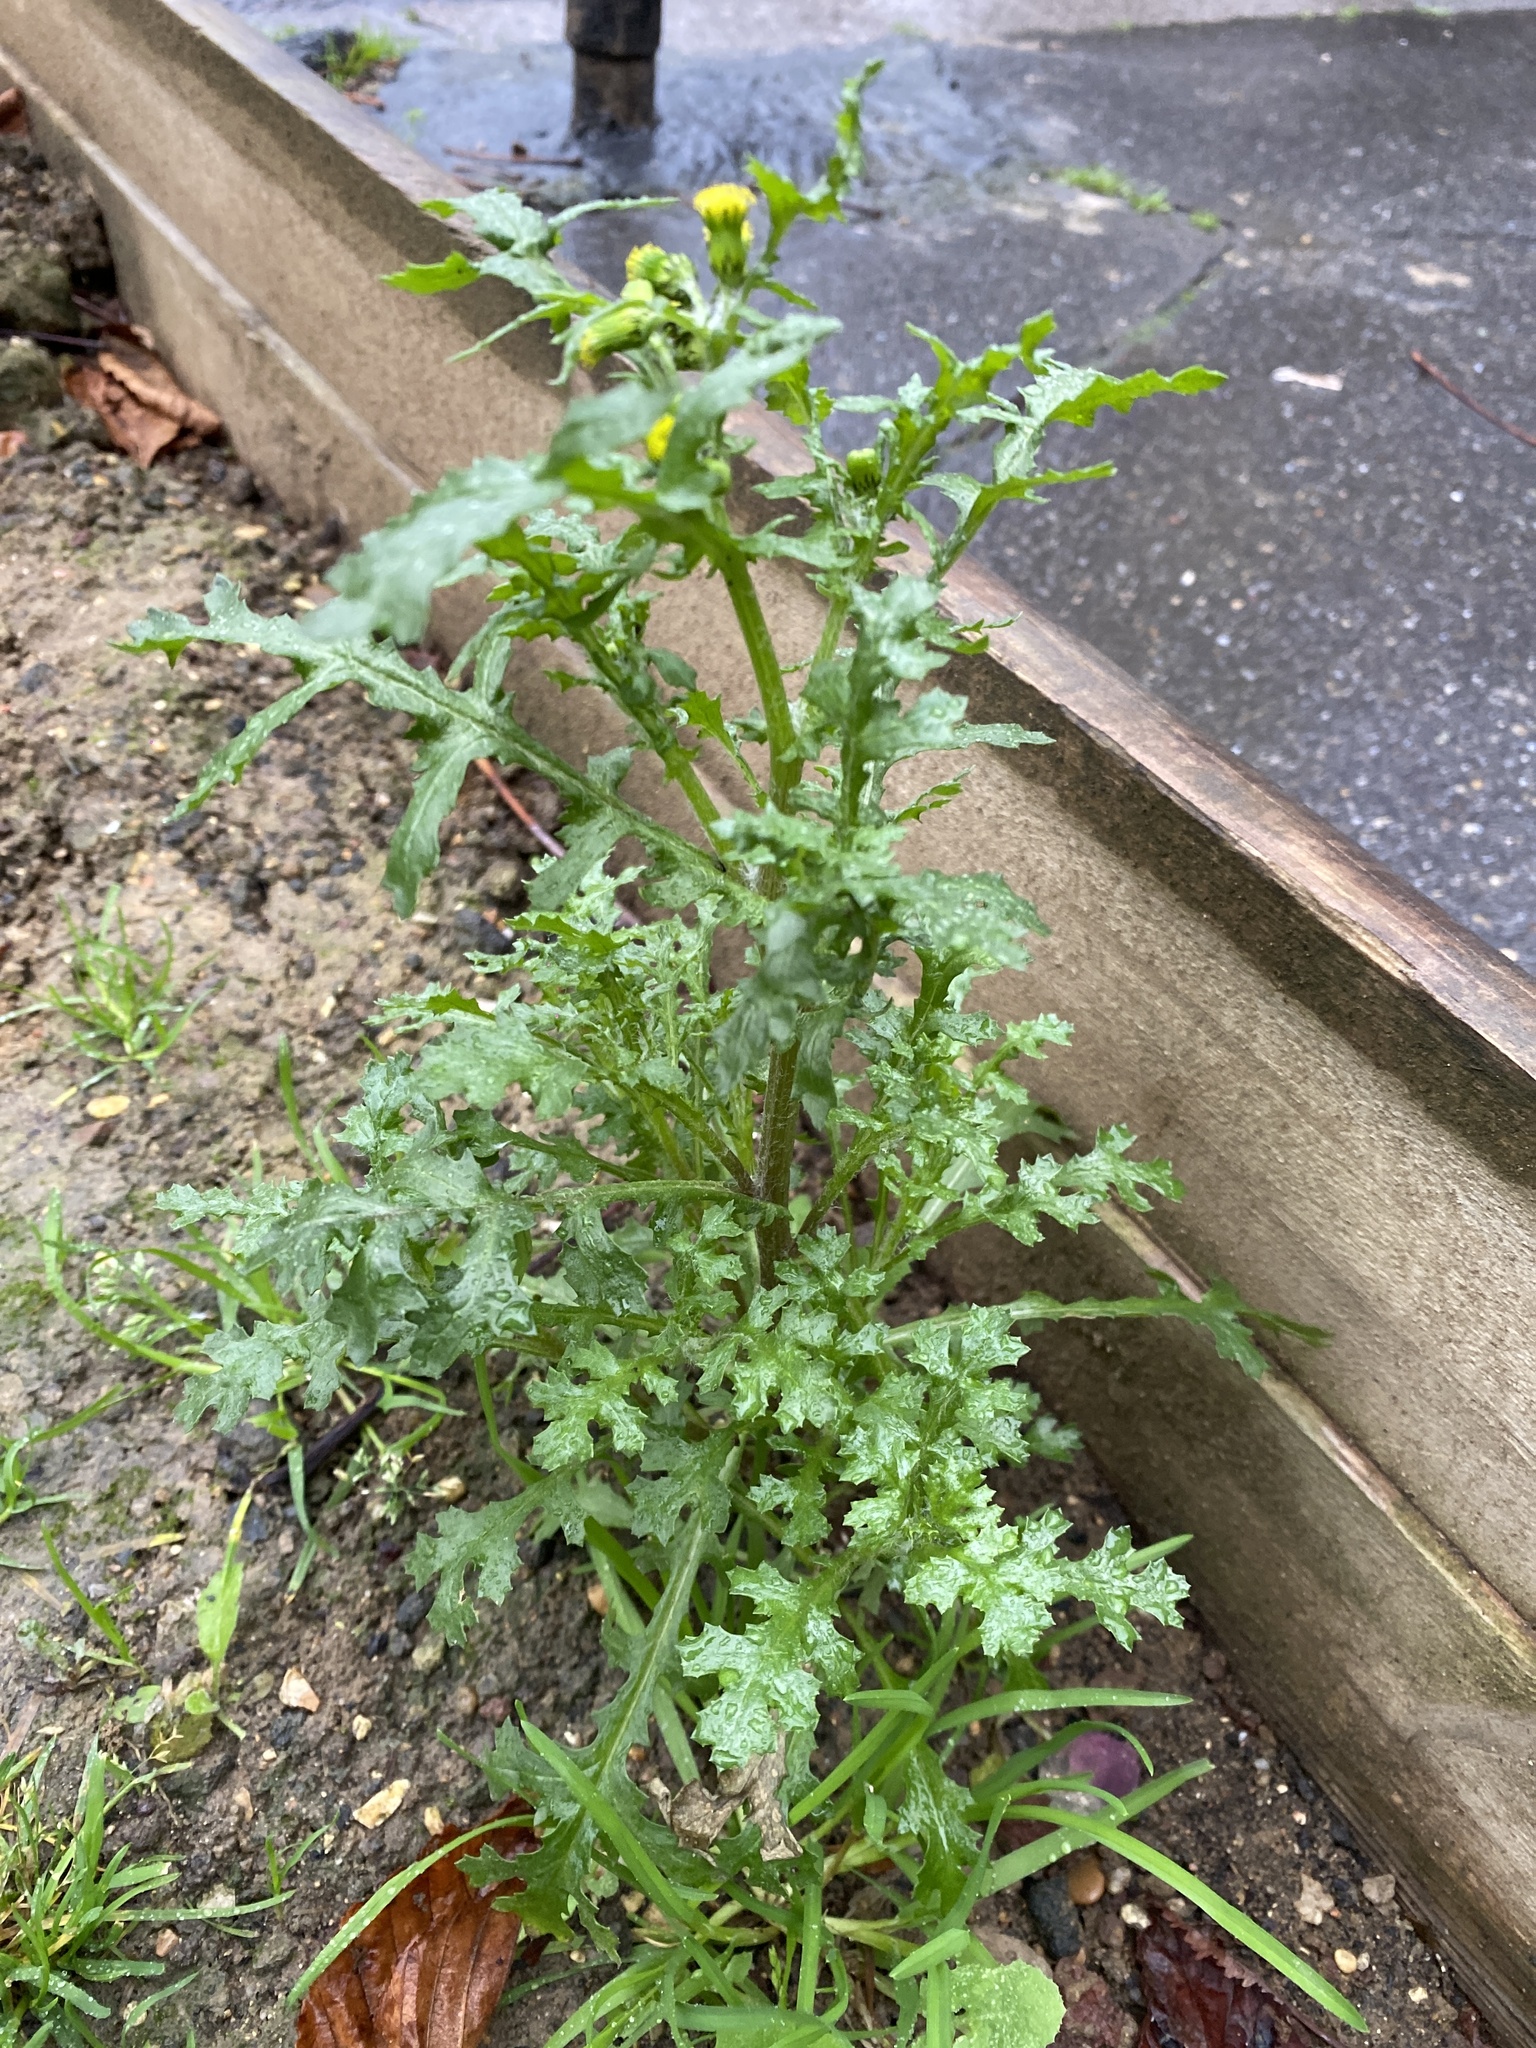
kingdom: Plantae
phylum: Tracheophyta
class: Magnoliopsida
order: Asterales
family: Asteraceae
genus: Senecio
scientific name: Senecio vulgaris
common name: Old-man-in-the-spring
